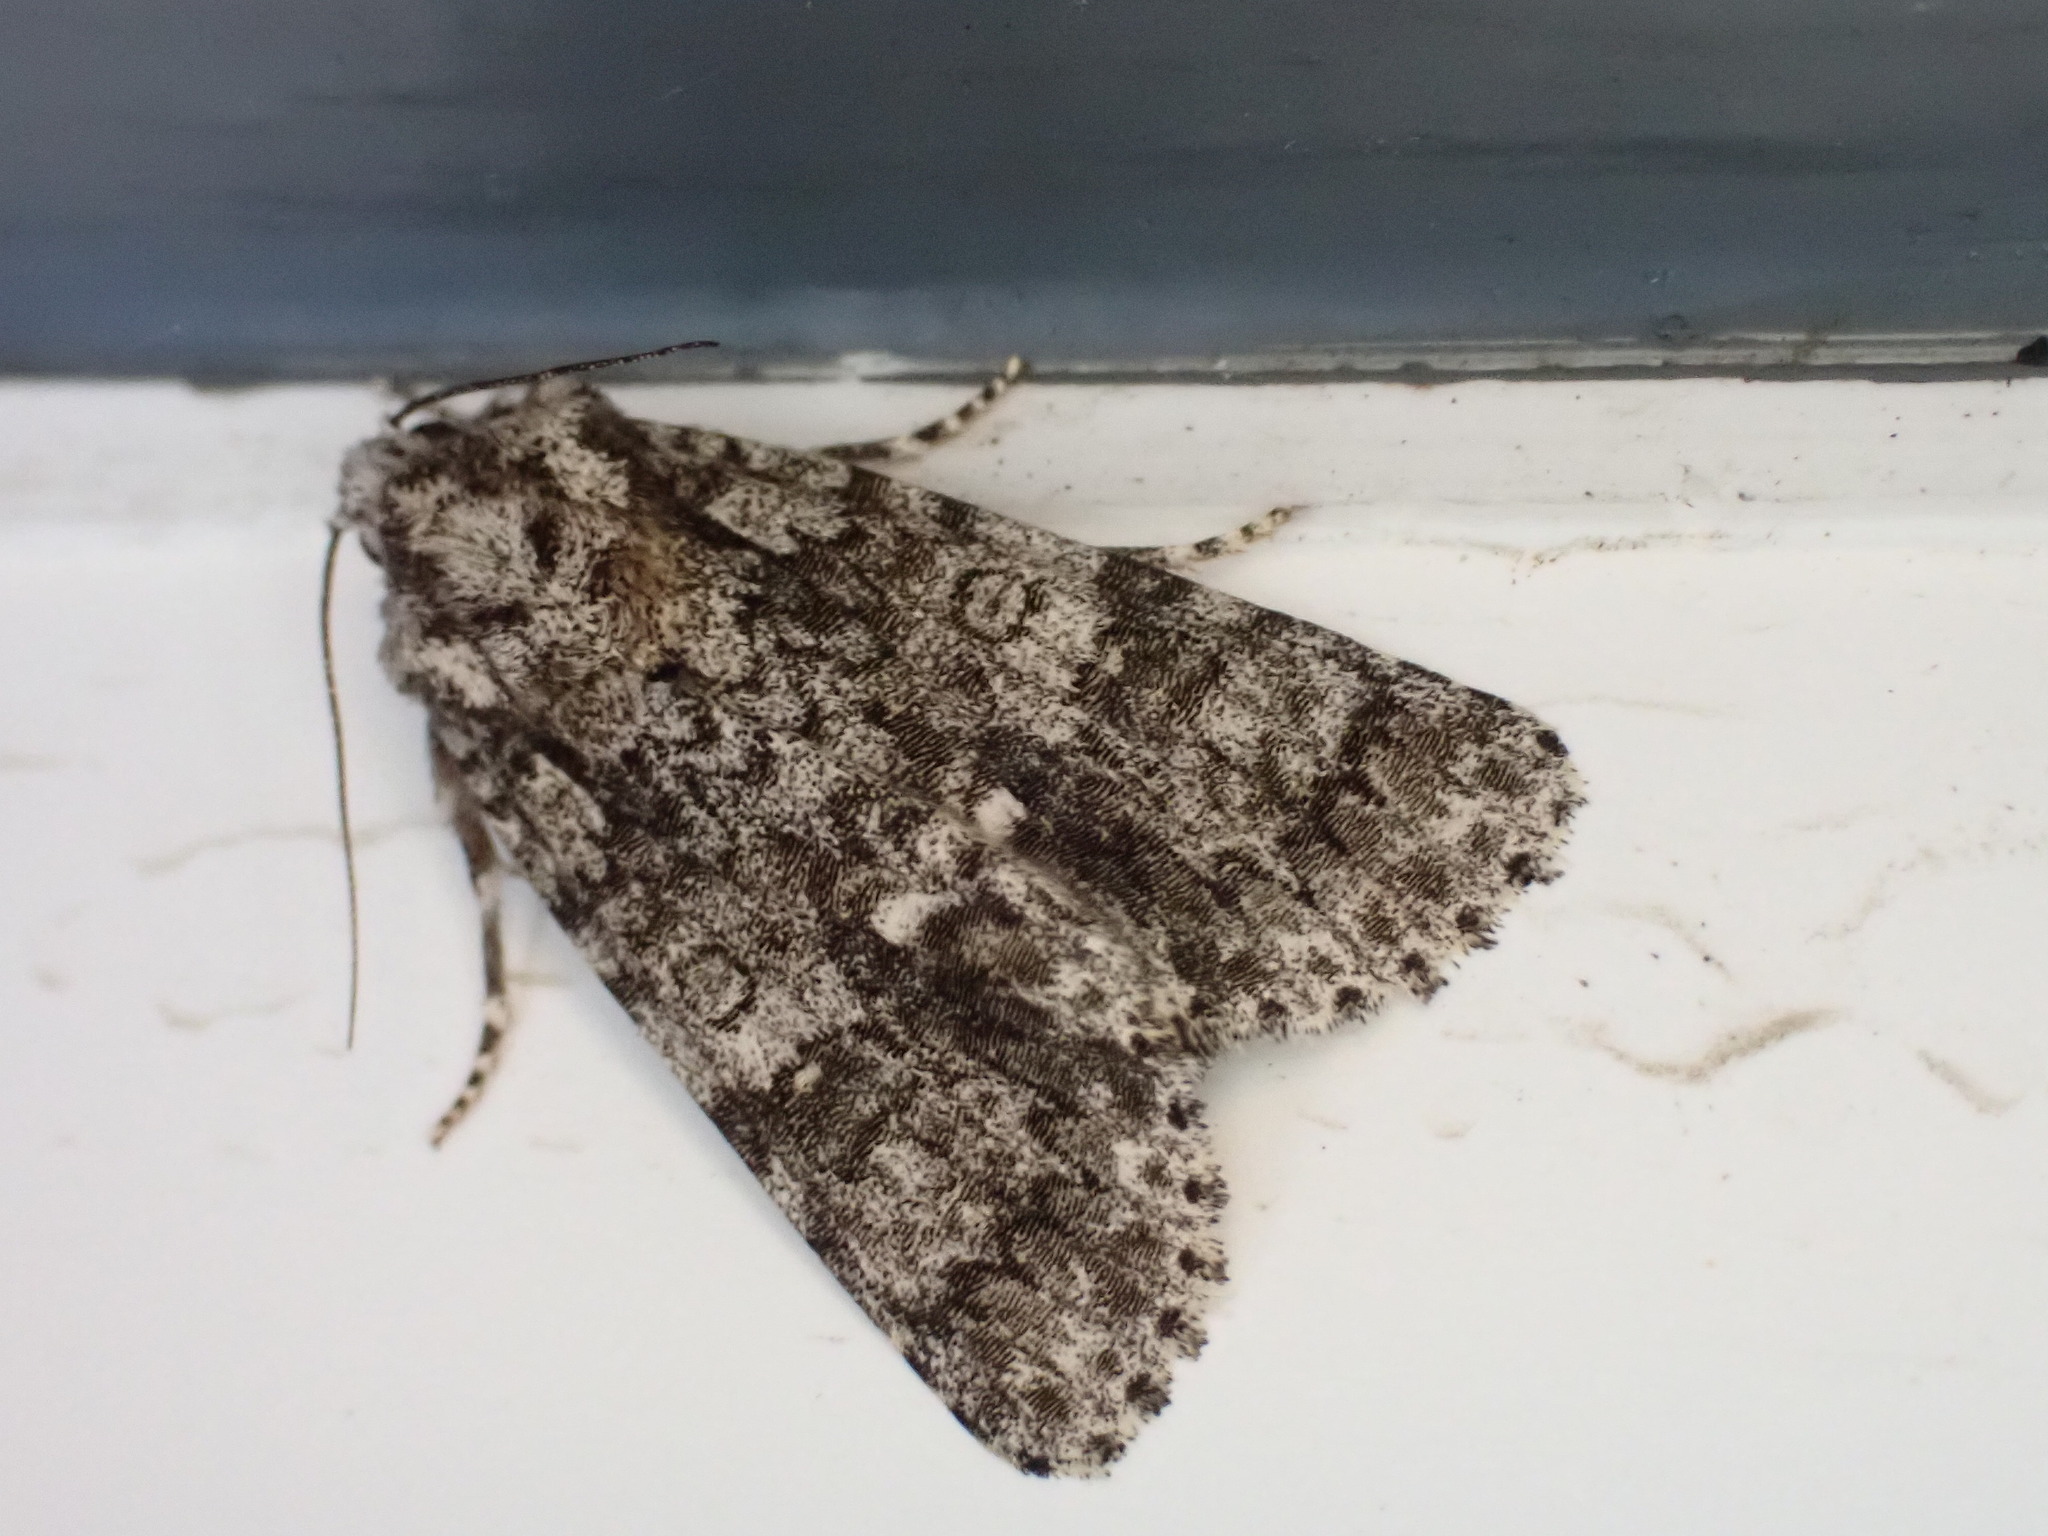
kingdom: Animalia
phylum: Arthropoda
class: Insecta
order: Lepidoptera
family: Noctuidae
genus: Acronicta
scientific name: Acronicta rumicis
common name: Knot grass
